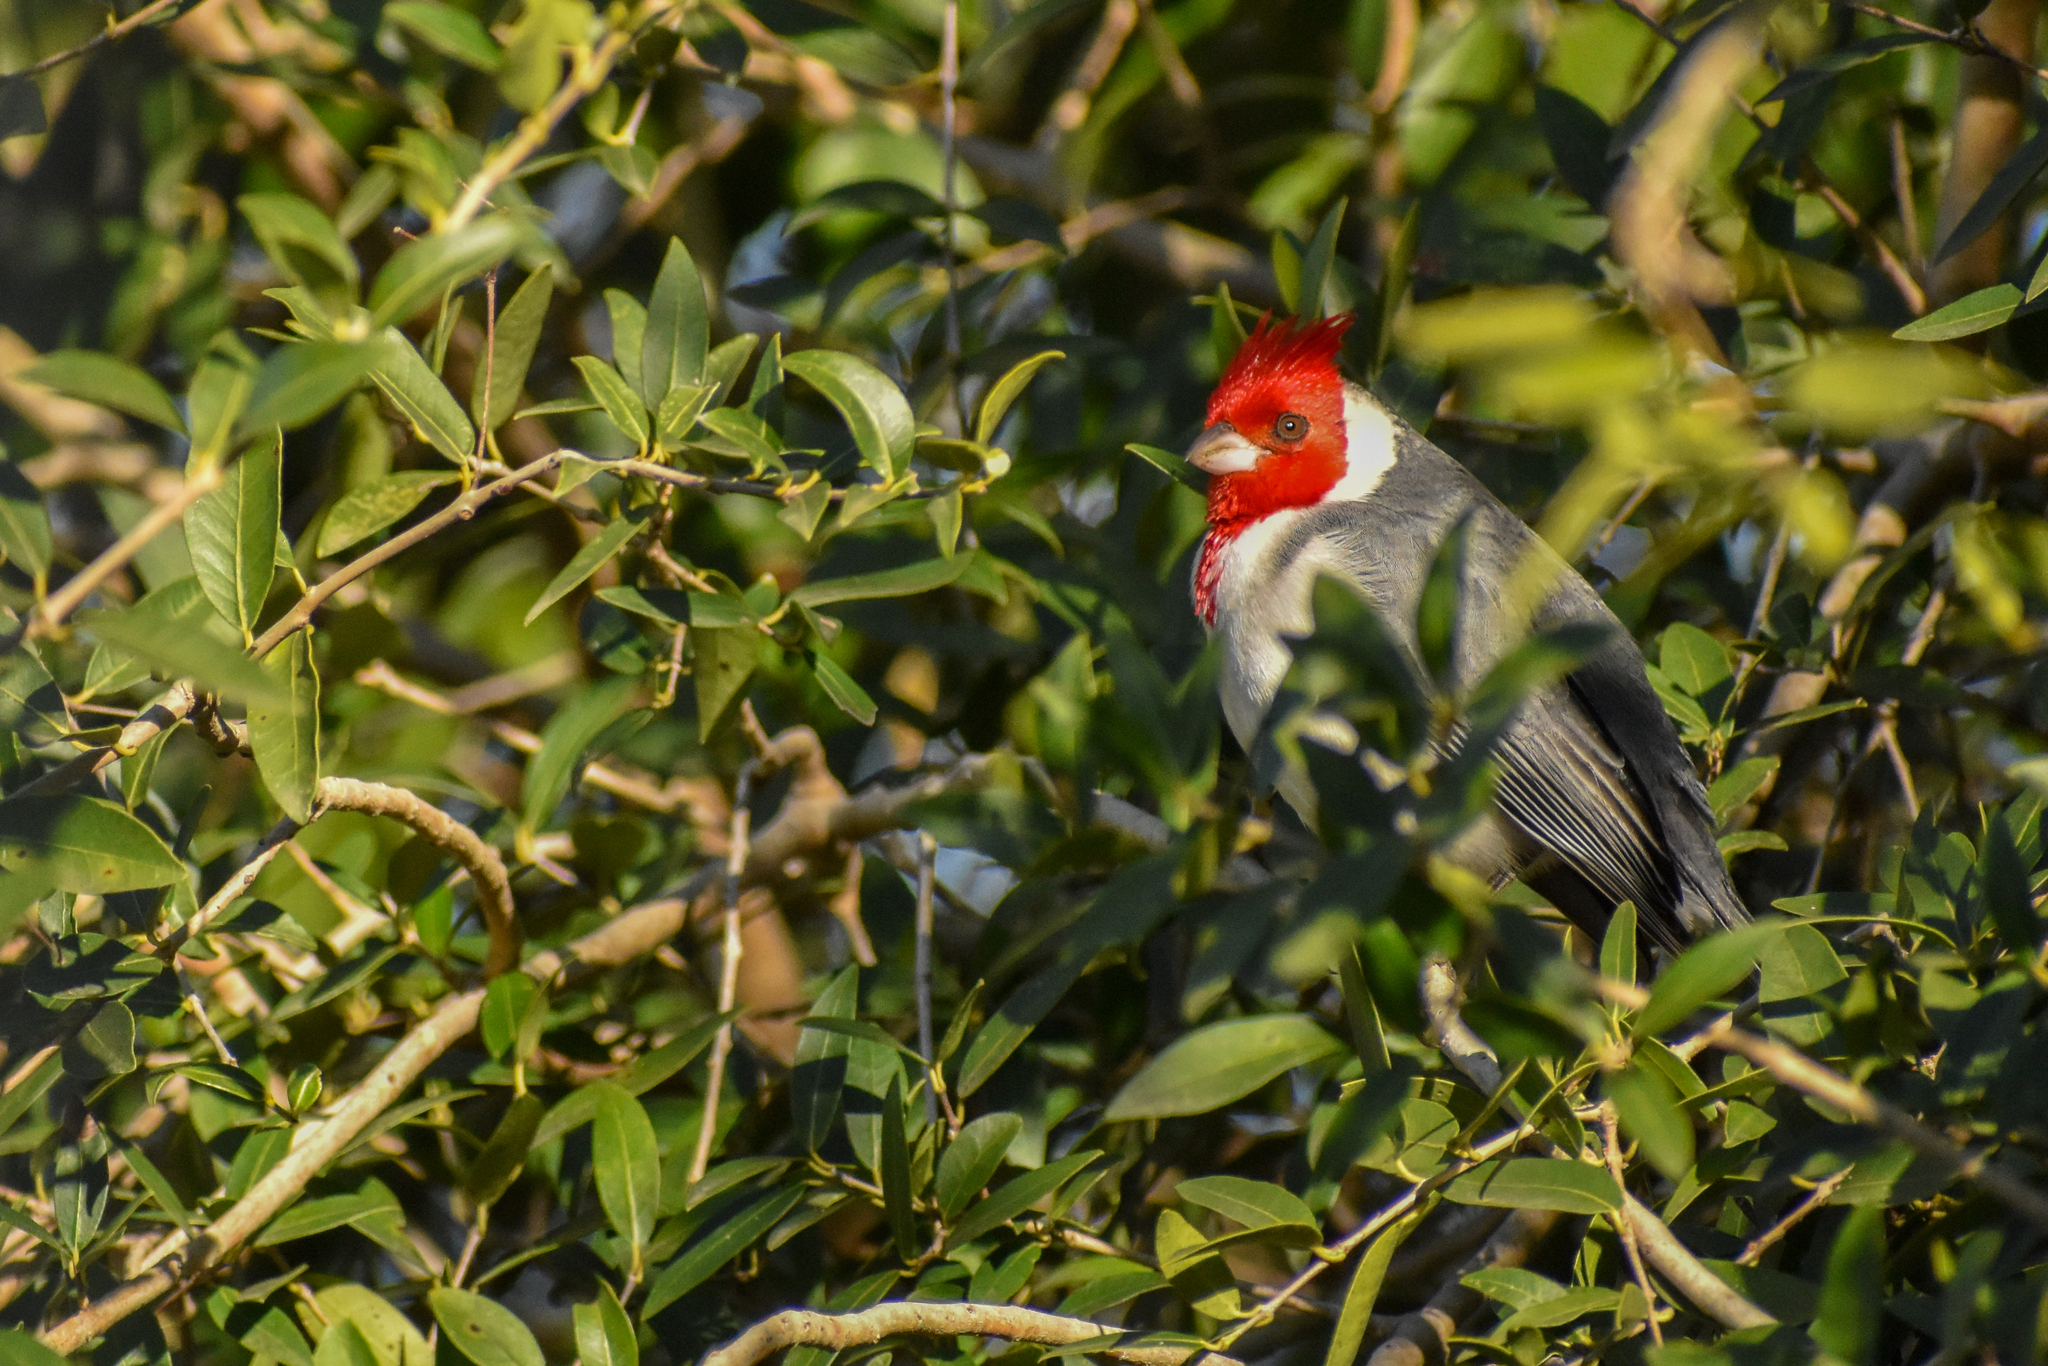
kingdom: Animalia
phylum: Chordata
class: Aves
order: Passeriformes
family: Thraupidae
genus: Paroaria
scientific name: Paroaria coronata
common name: Red-crested cardinal
